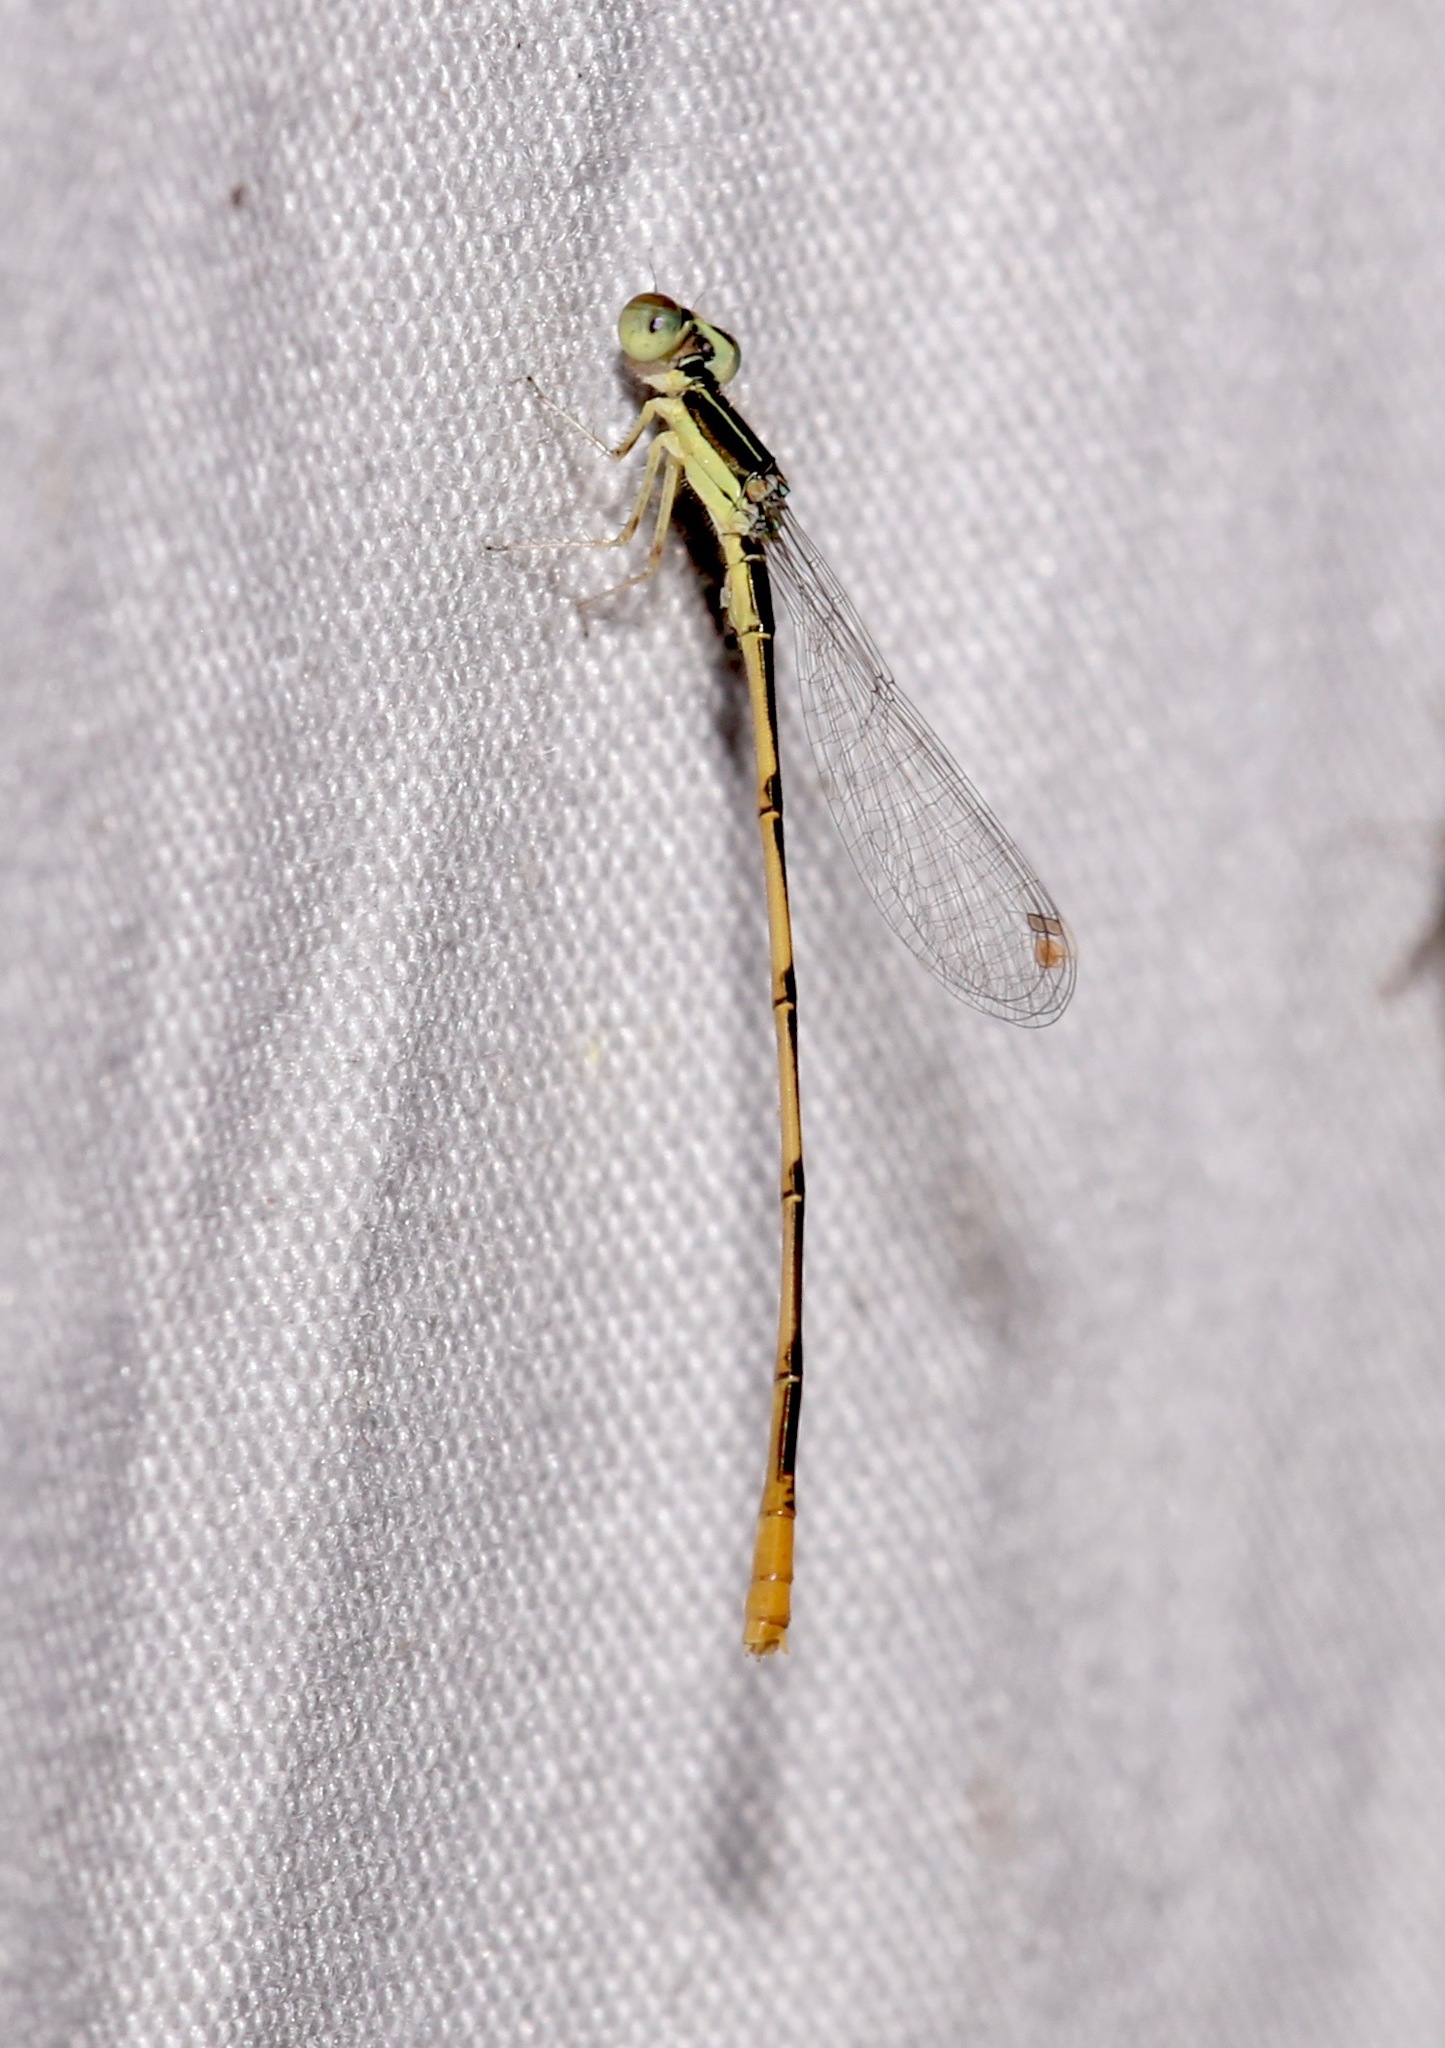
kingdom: Animalia
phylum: Arthropoda
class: Insecta
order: Odonata
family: Coenagrionidae
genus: Ischnura
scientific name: Ischnura hastata
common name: Citrine forktail
